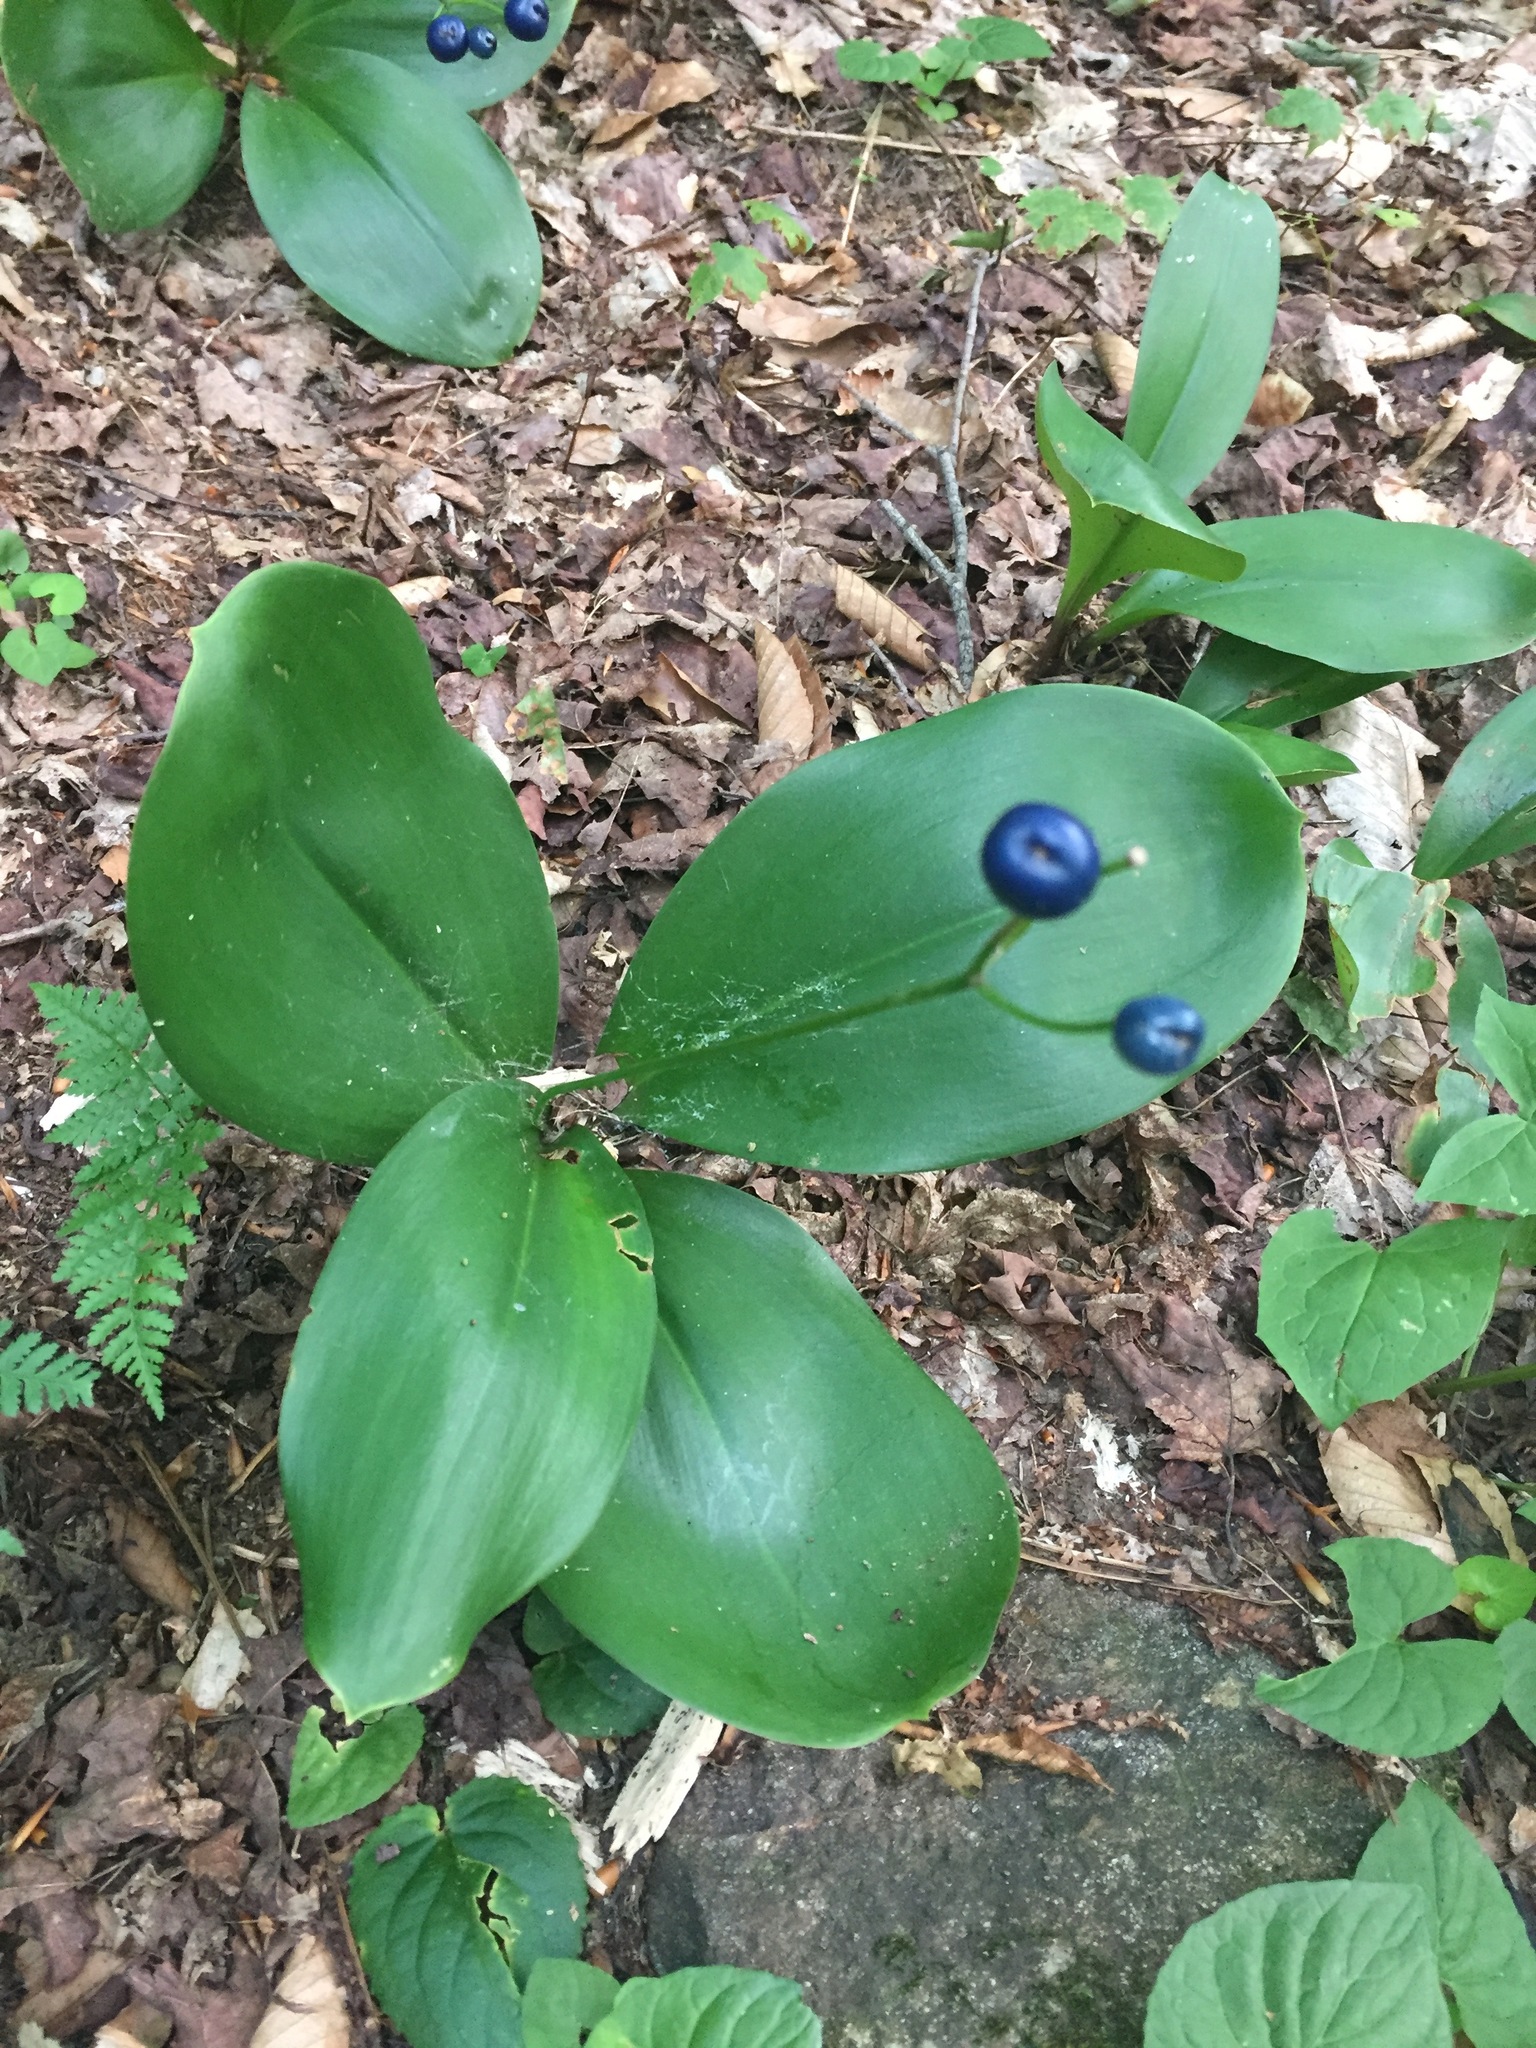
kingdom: Plantae
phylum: Tracheophyta
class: Liliopsida
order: Liliales
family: Liliaceae
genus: Clintonia
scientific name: Clintonia borealis
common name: Yellow clintonia
